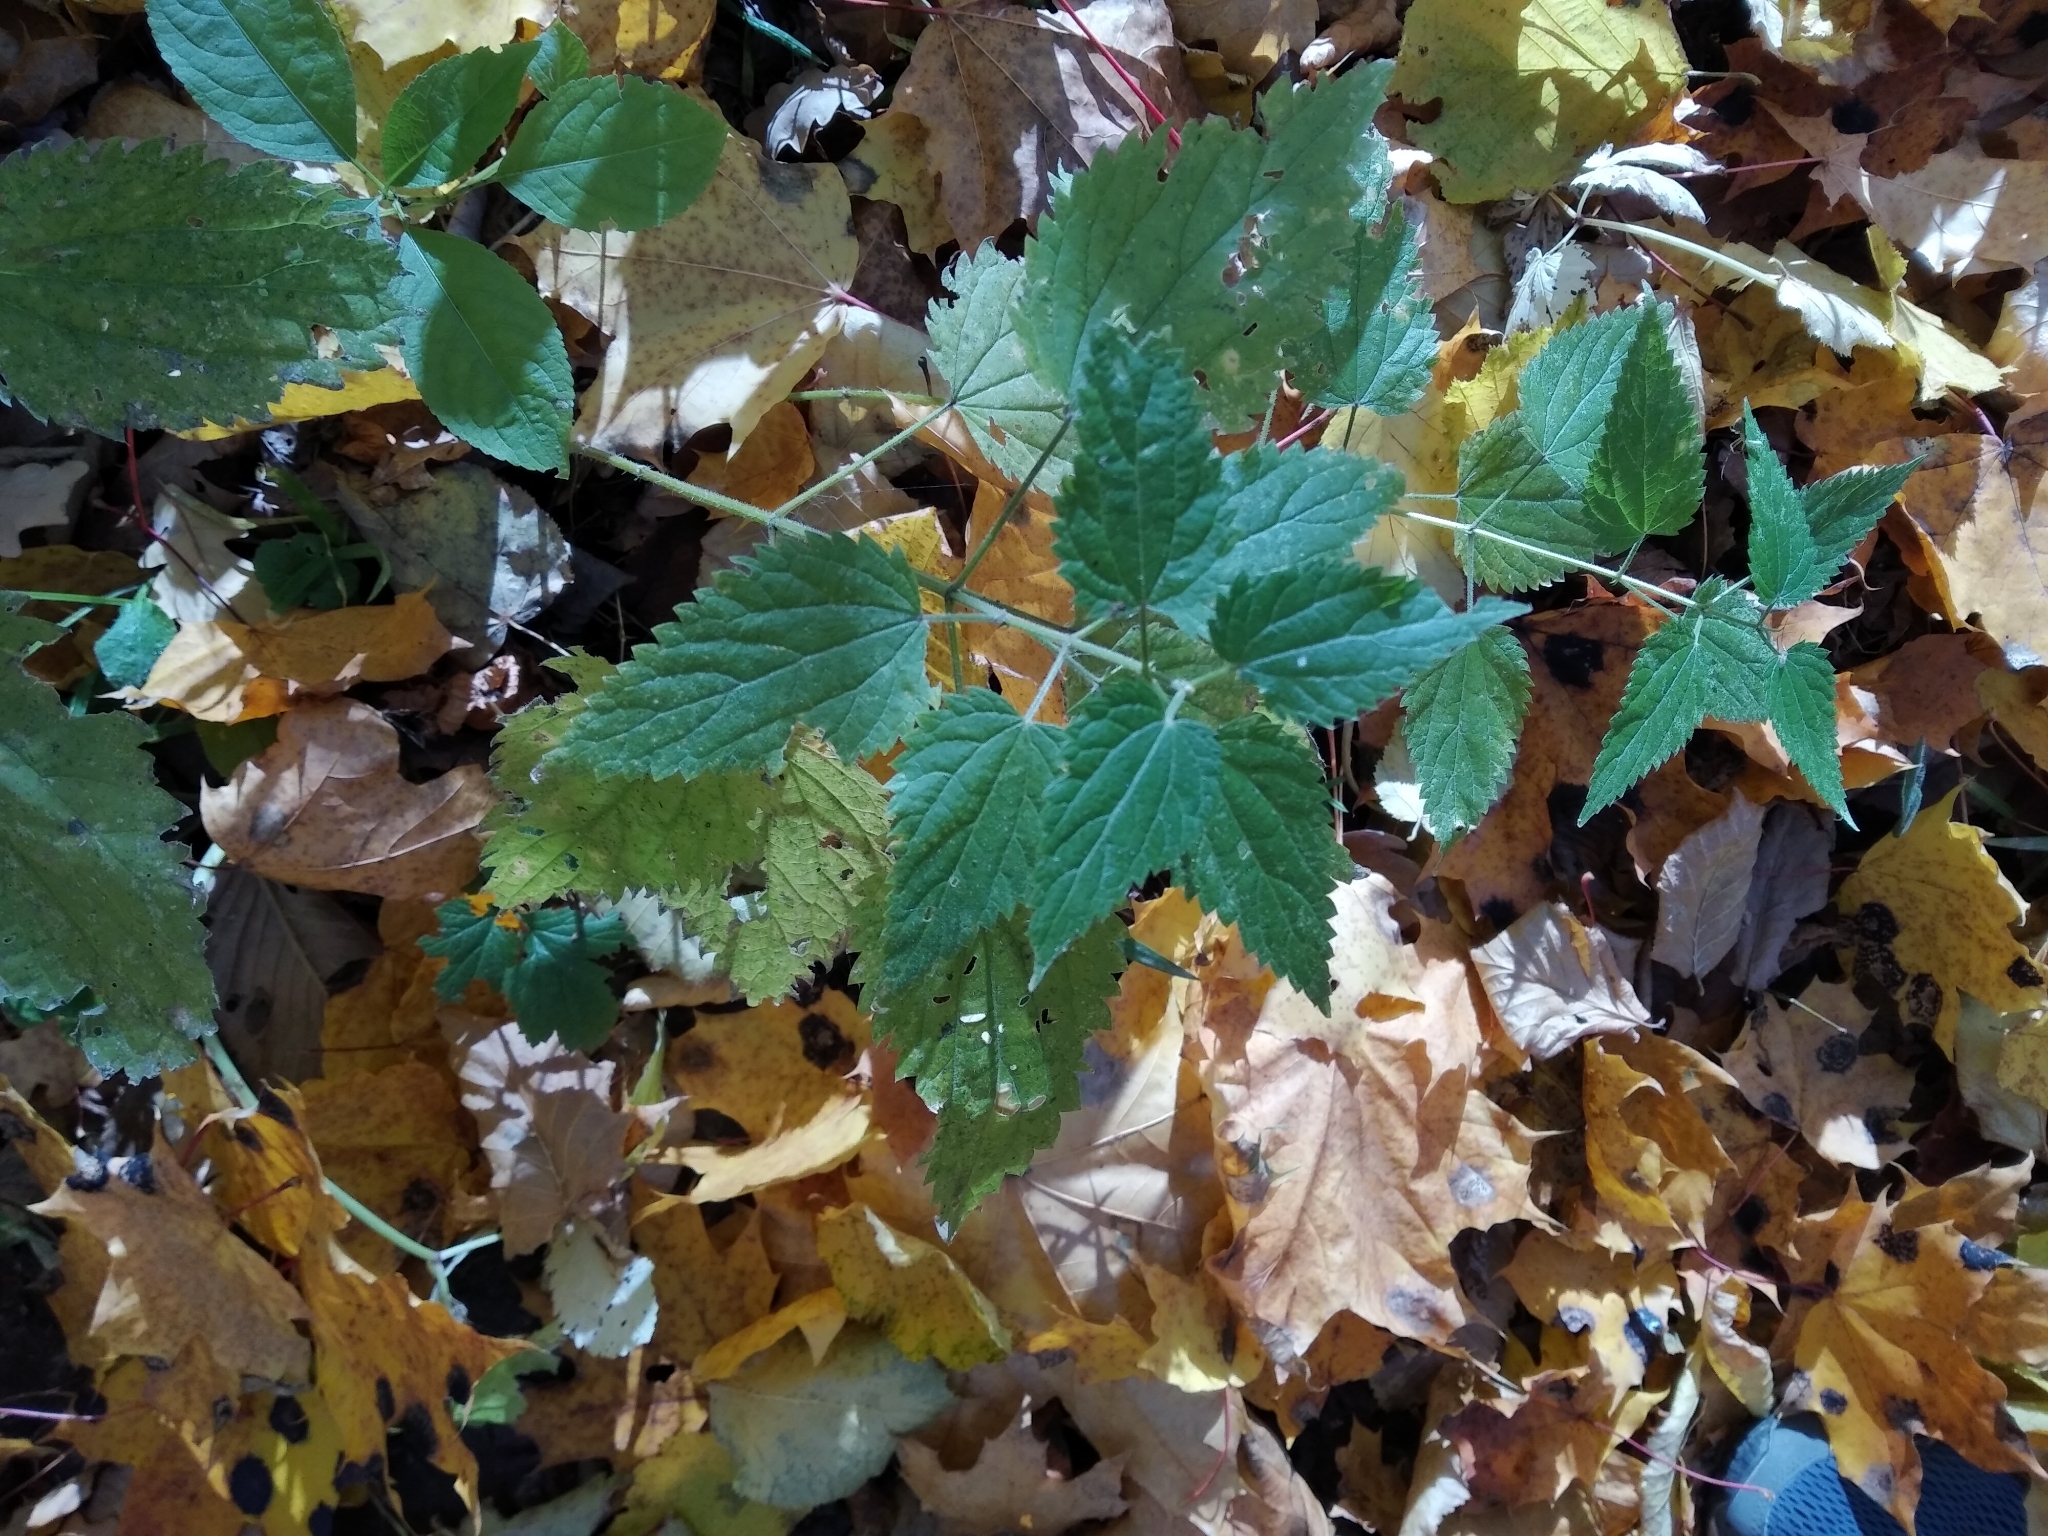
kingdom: Plantae
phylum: Tracheophyta
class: Magnoliopsida
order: Rosales
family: Urticaceae
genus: Urtica
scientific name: Urtica dioica
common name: Common nettle
